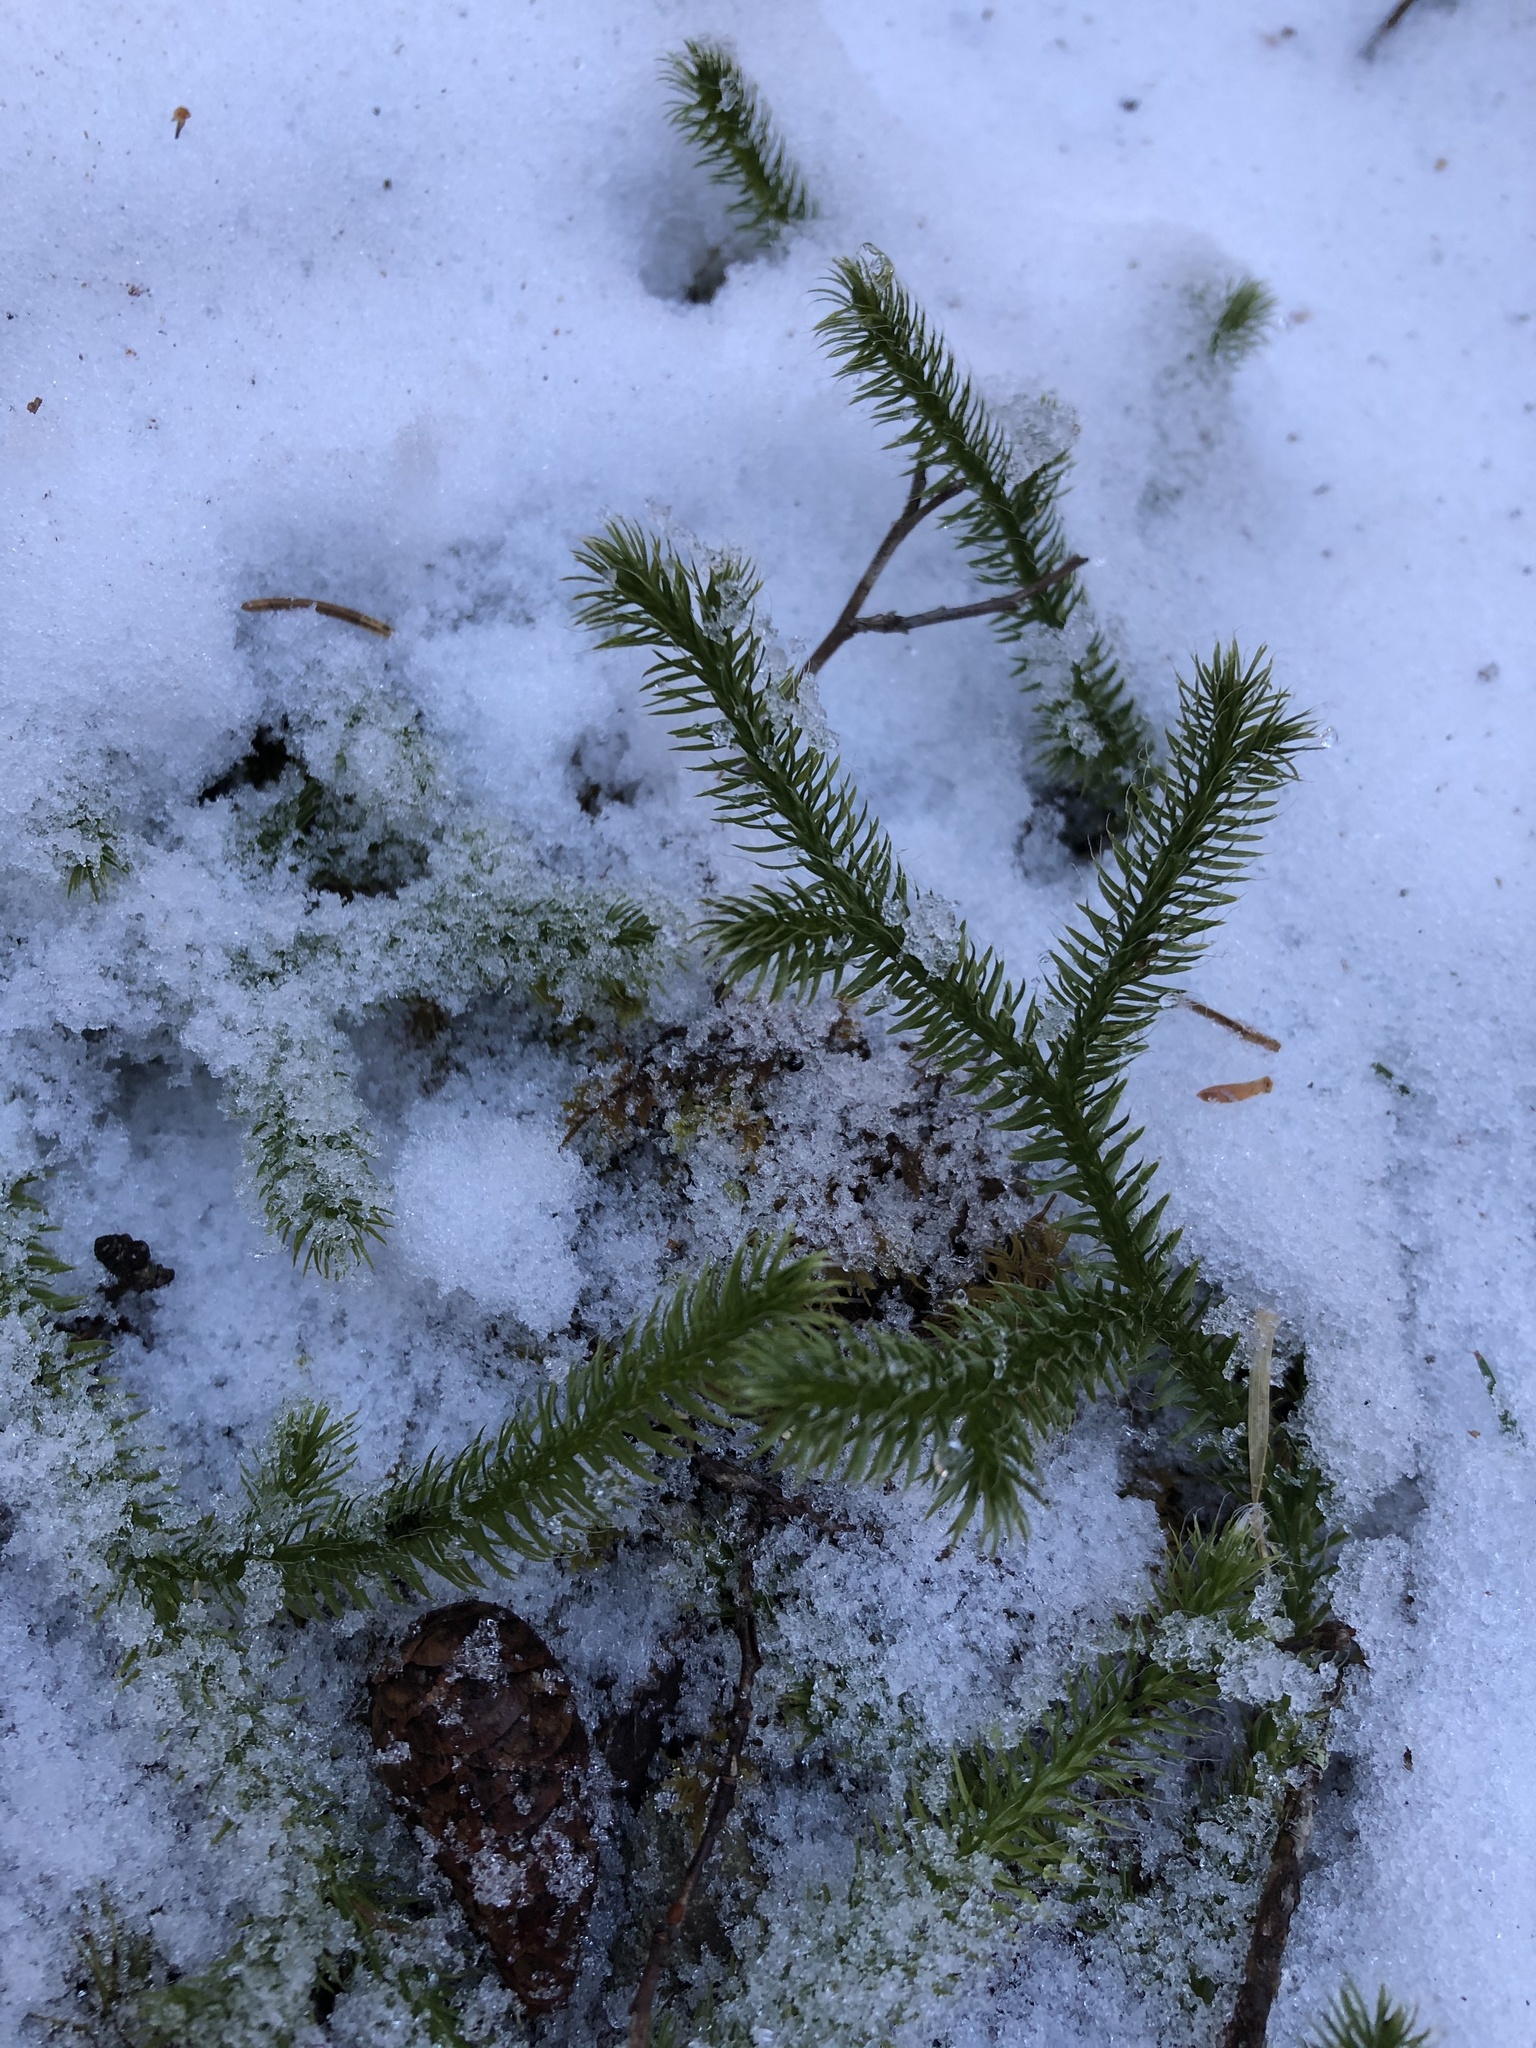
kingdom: Plantae
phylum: Tracheophyta
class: Lycopodiopsida
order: Lycopodiales
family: Lycopodiaceae
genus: Lycopodium
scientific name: Lycopodium clavatum
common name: Stag's-horn clubmoss
